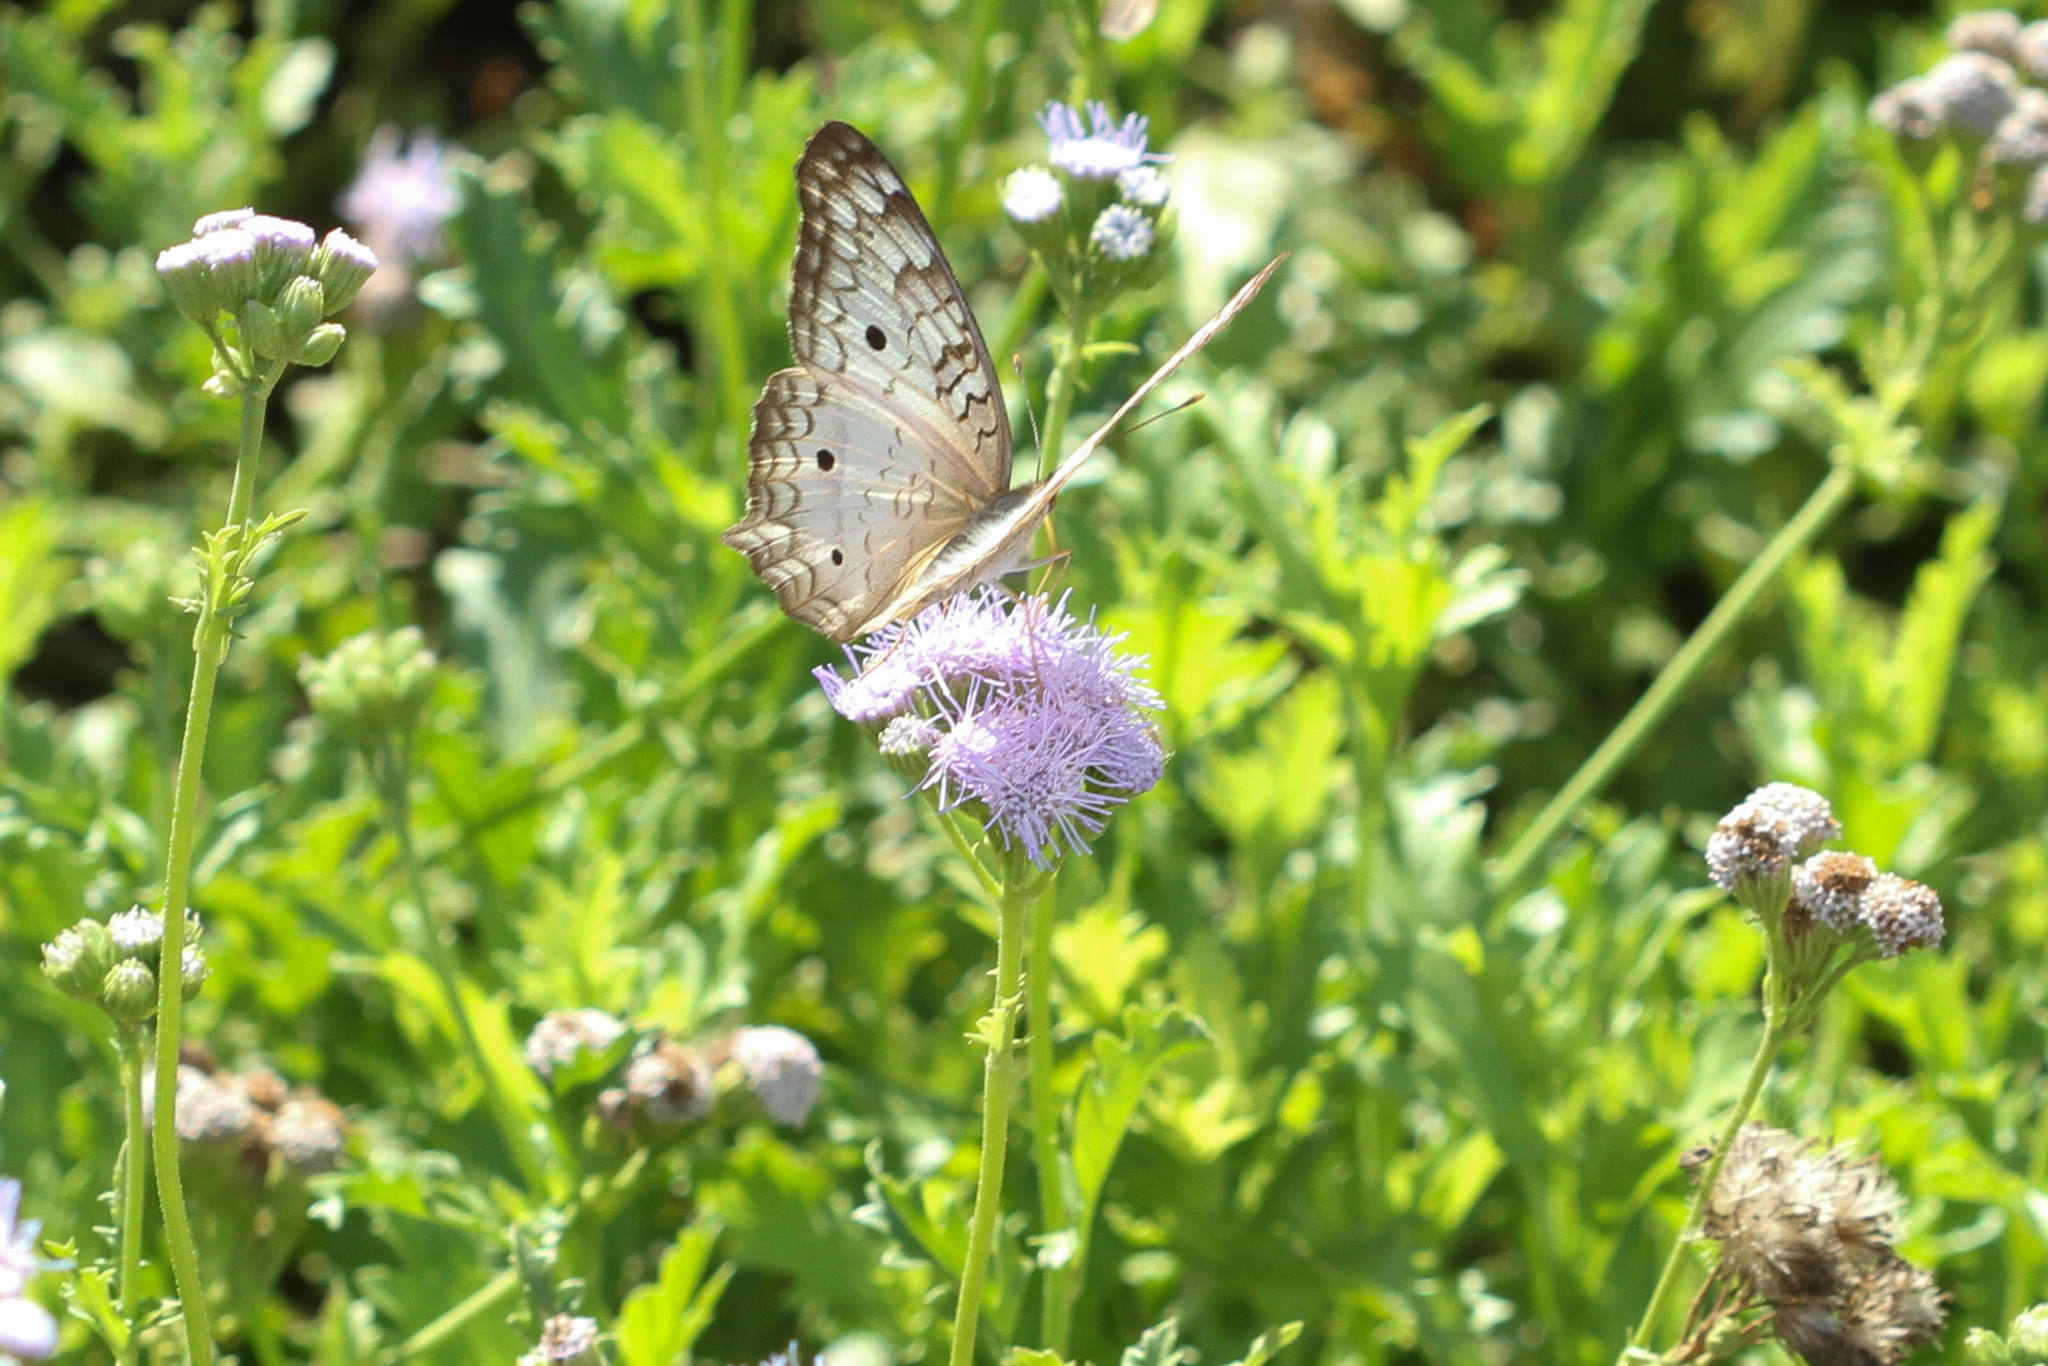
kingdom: Animalia
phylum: Arthropoda
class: Insecta
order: Lepidoptera
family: Nymphalidae
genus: Anartia
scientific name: Anartia jatrophae
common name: White peacock
